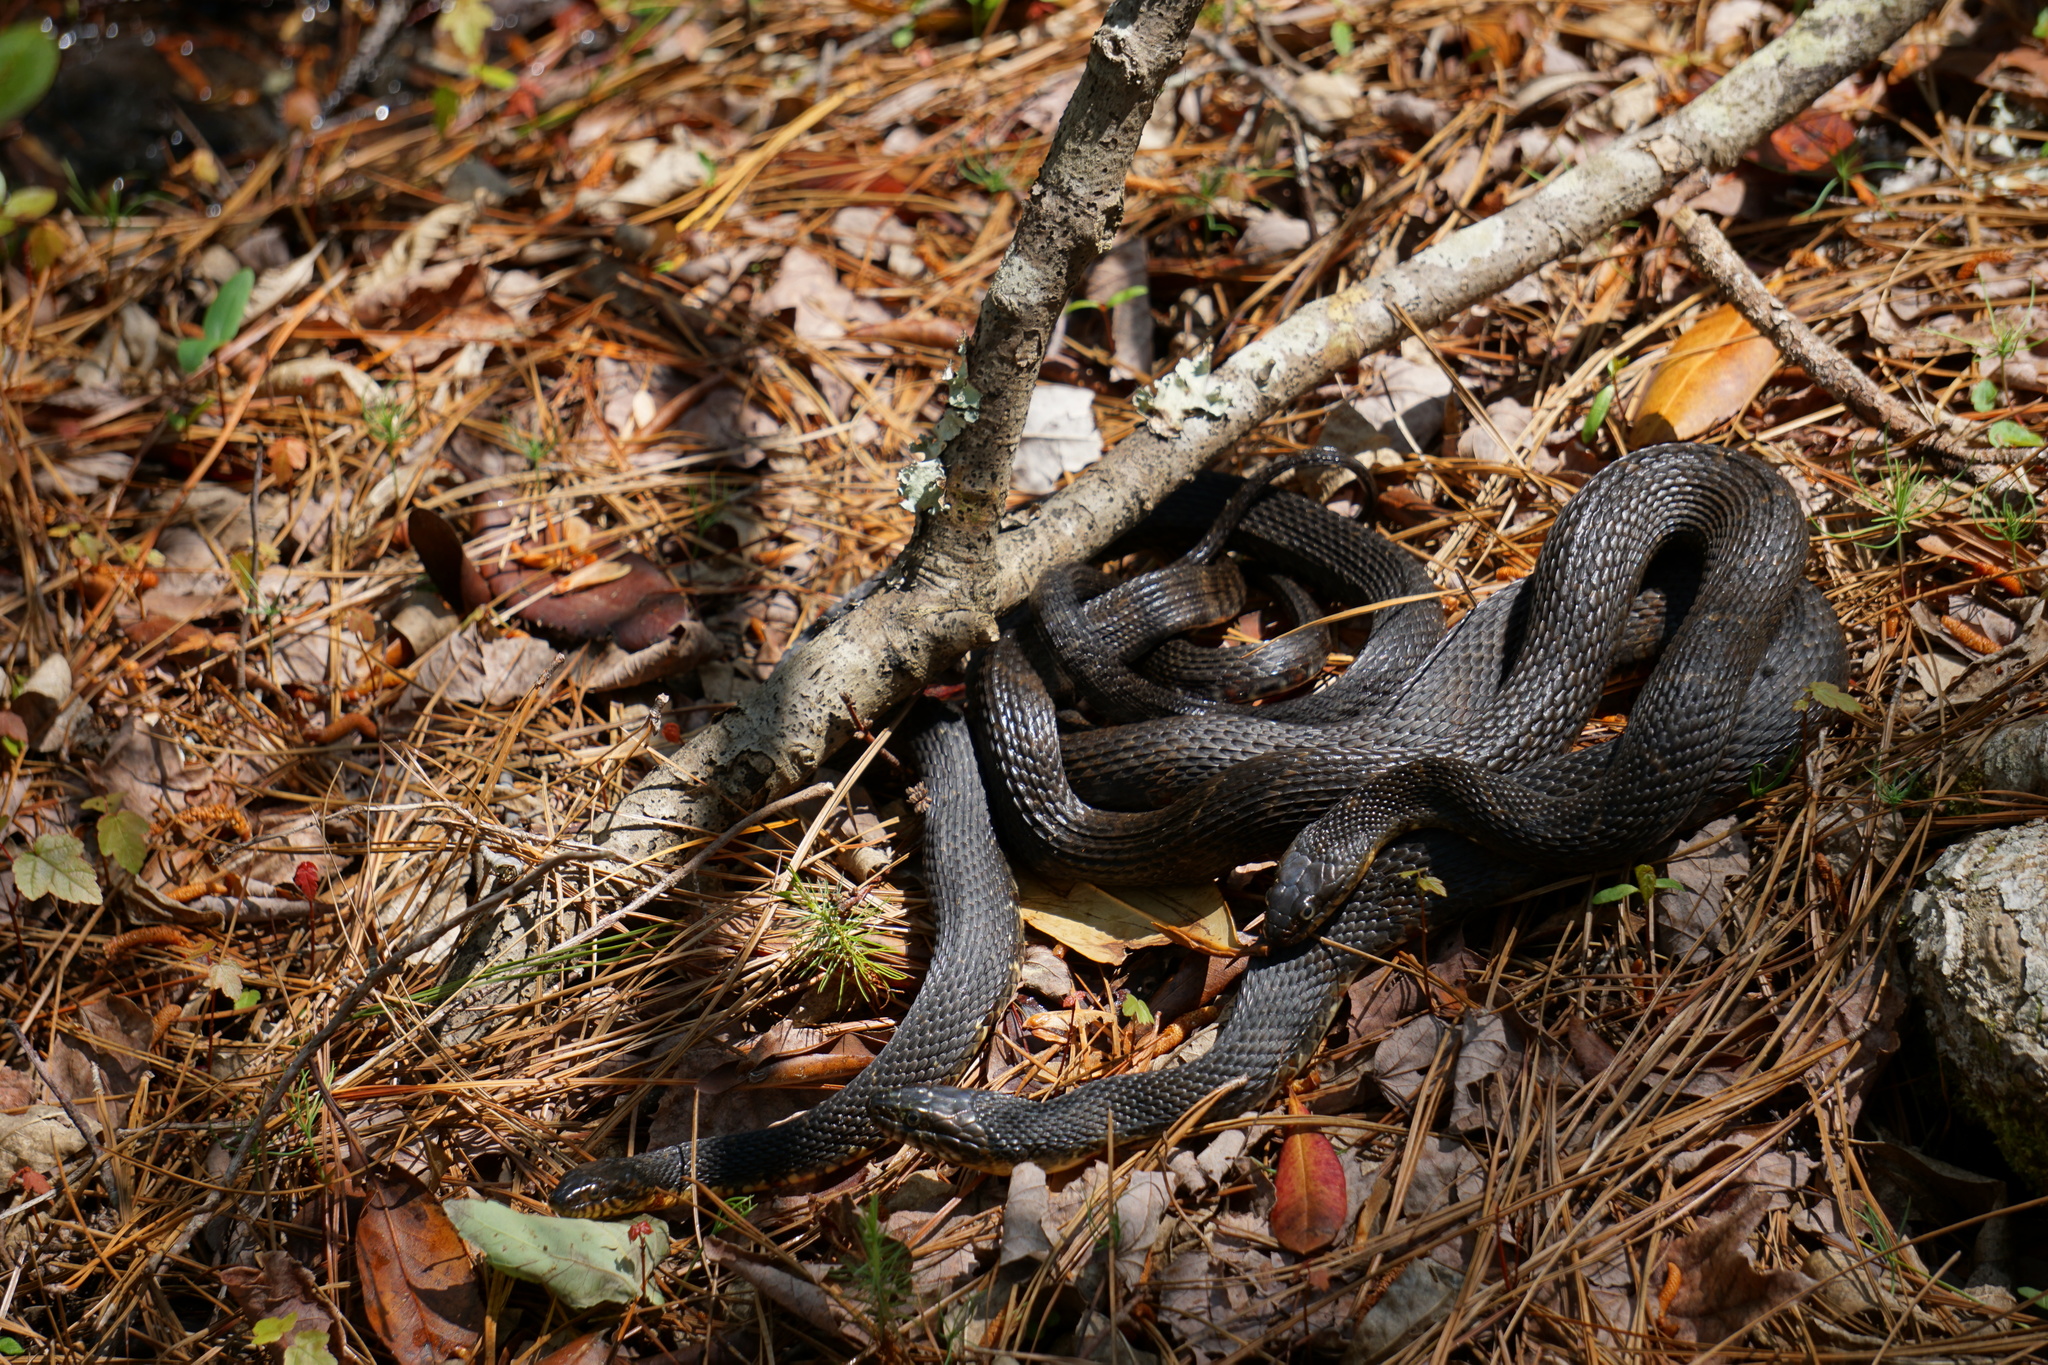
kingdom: Animalia
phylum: Chordata
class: Squamata
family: Colubridae
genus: Nerodia
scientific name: Nerodia fasciata
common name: Southern water snake
